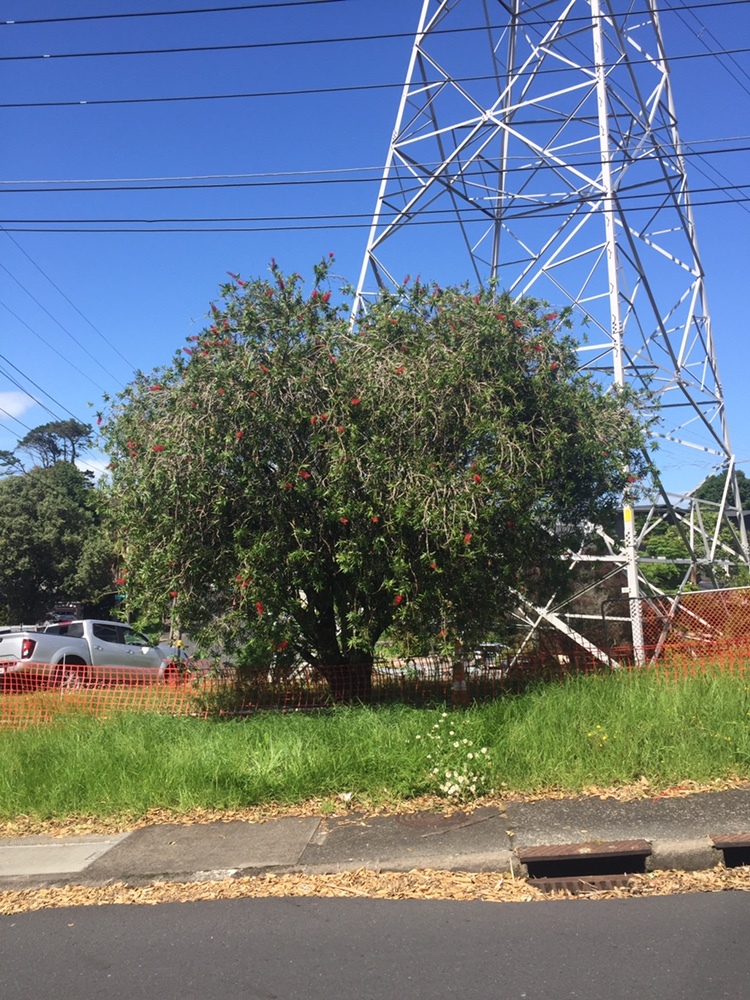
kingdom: Animalia
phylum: Arthropoda
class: Insecta
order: Hymenoptera
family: Colletidae
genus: Hylaeus
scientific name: Hylaeus perhumilis
